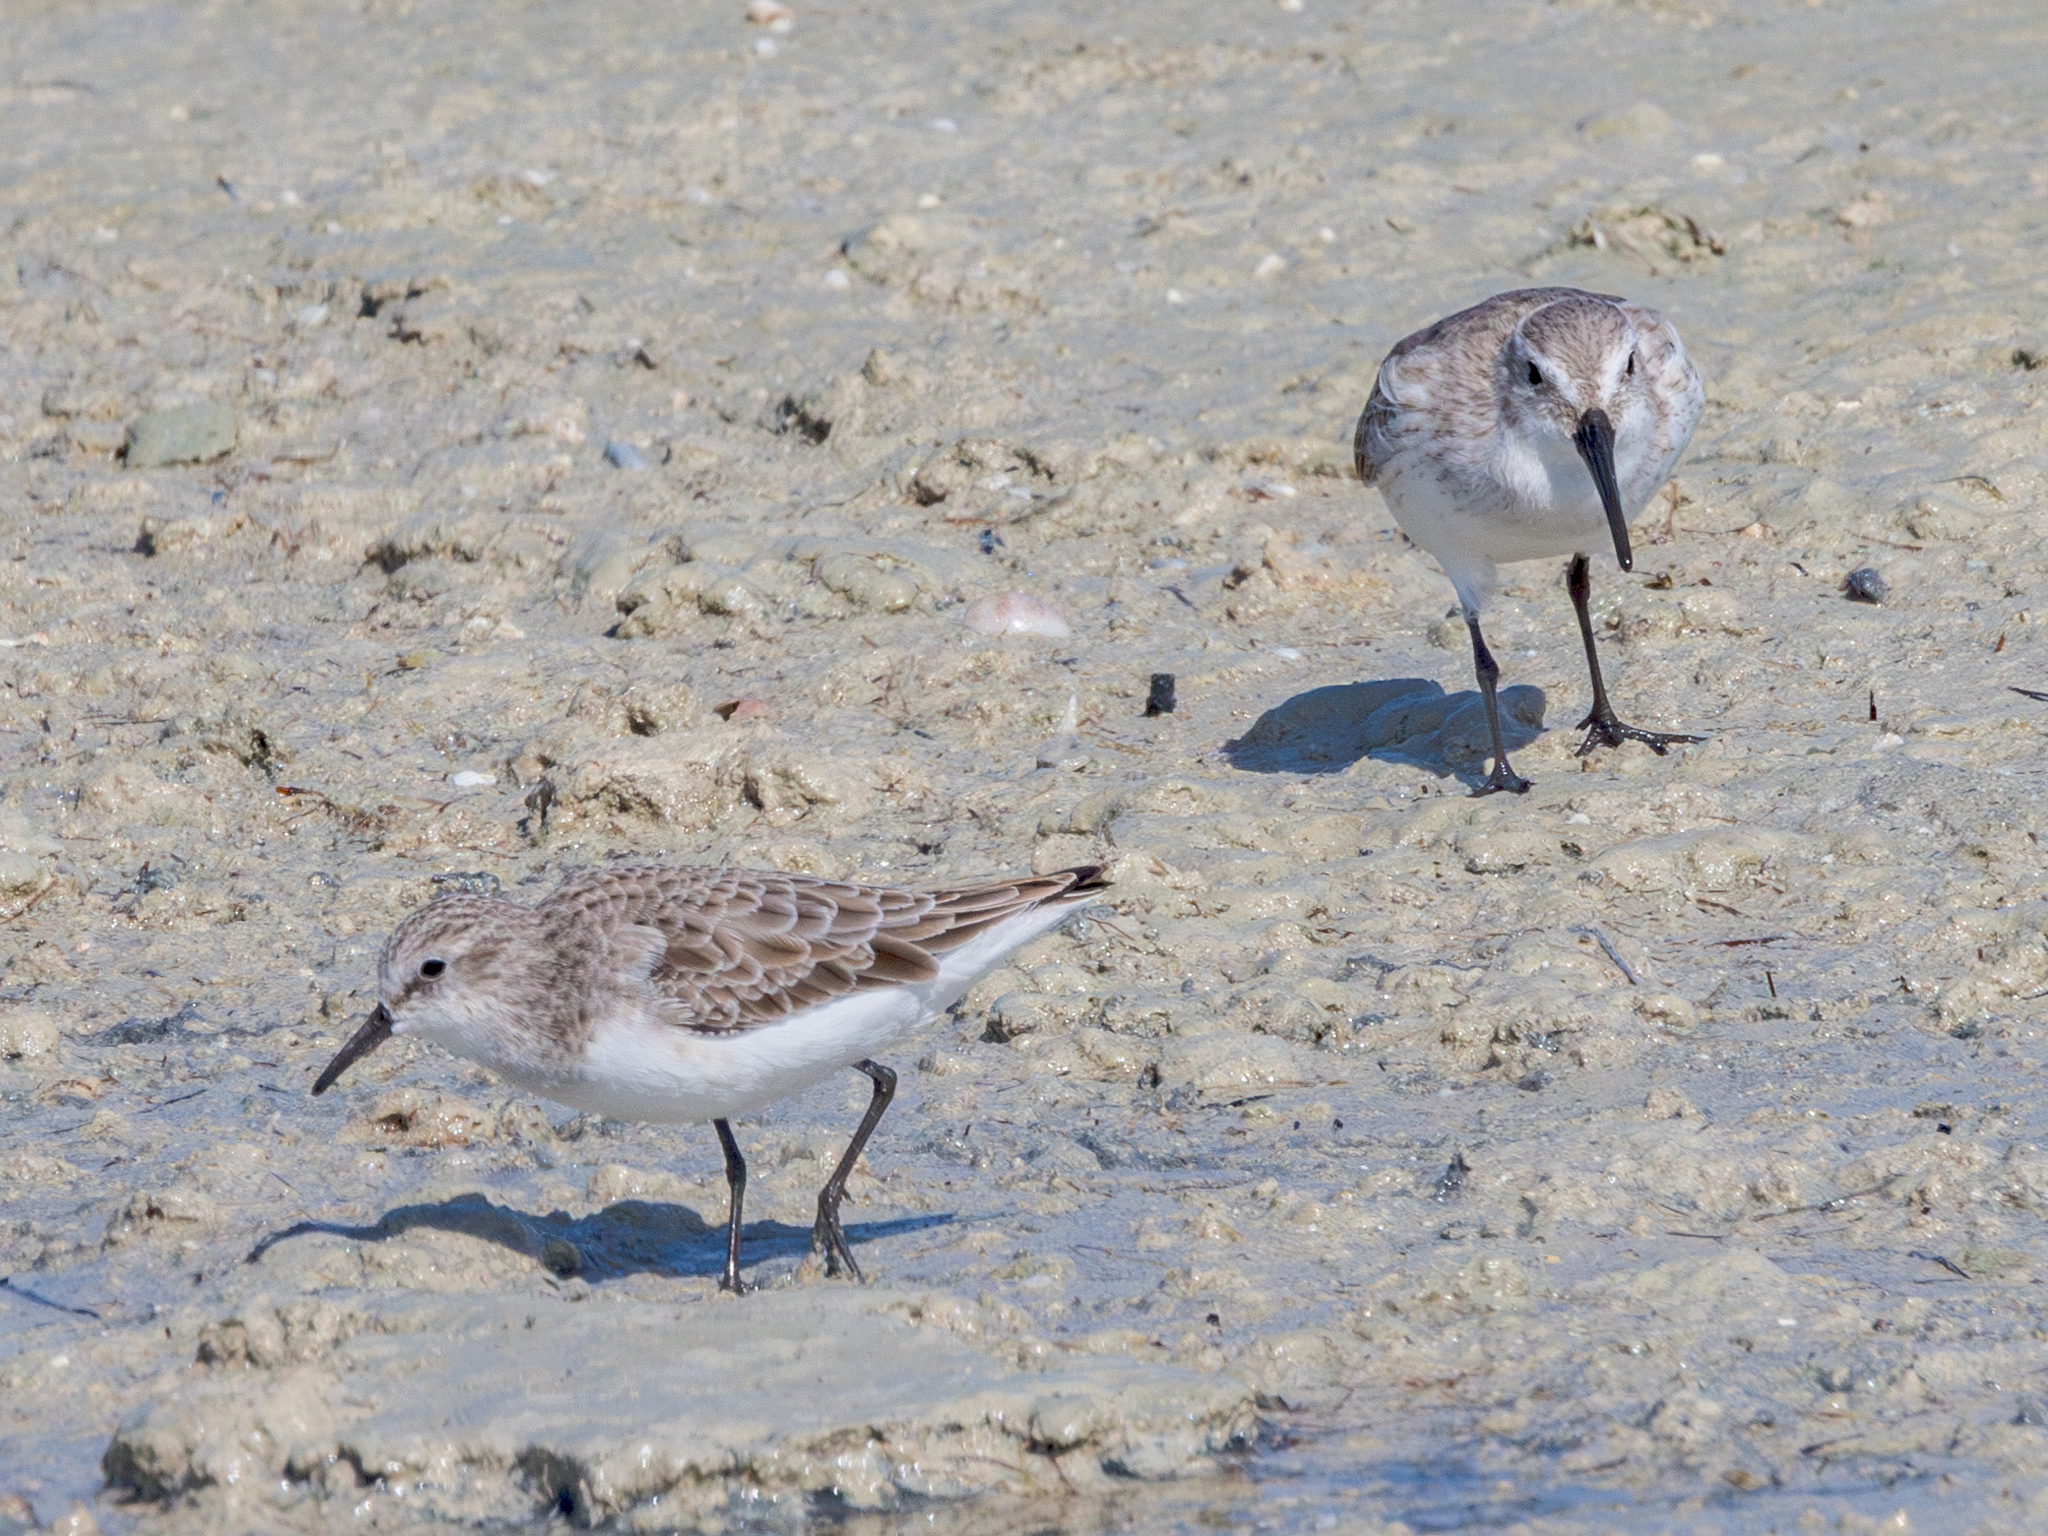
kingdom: Animalia
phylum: Chordata
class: Aves
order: Charadriiformes
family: Scolopacidae
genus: Calidris
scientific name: Calidris minuta
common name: Little stint
